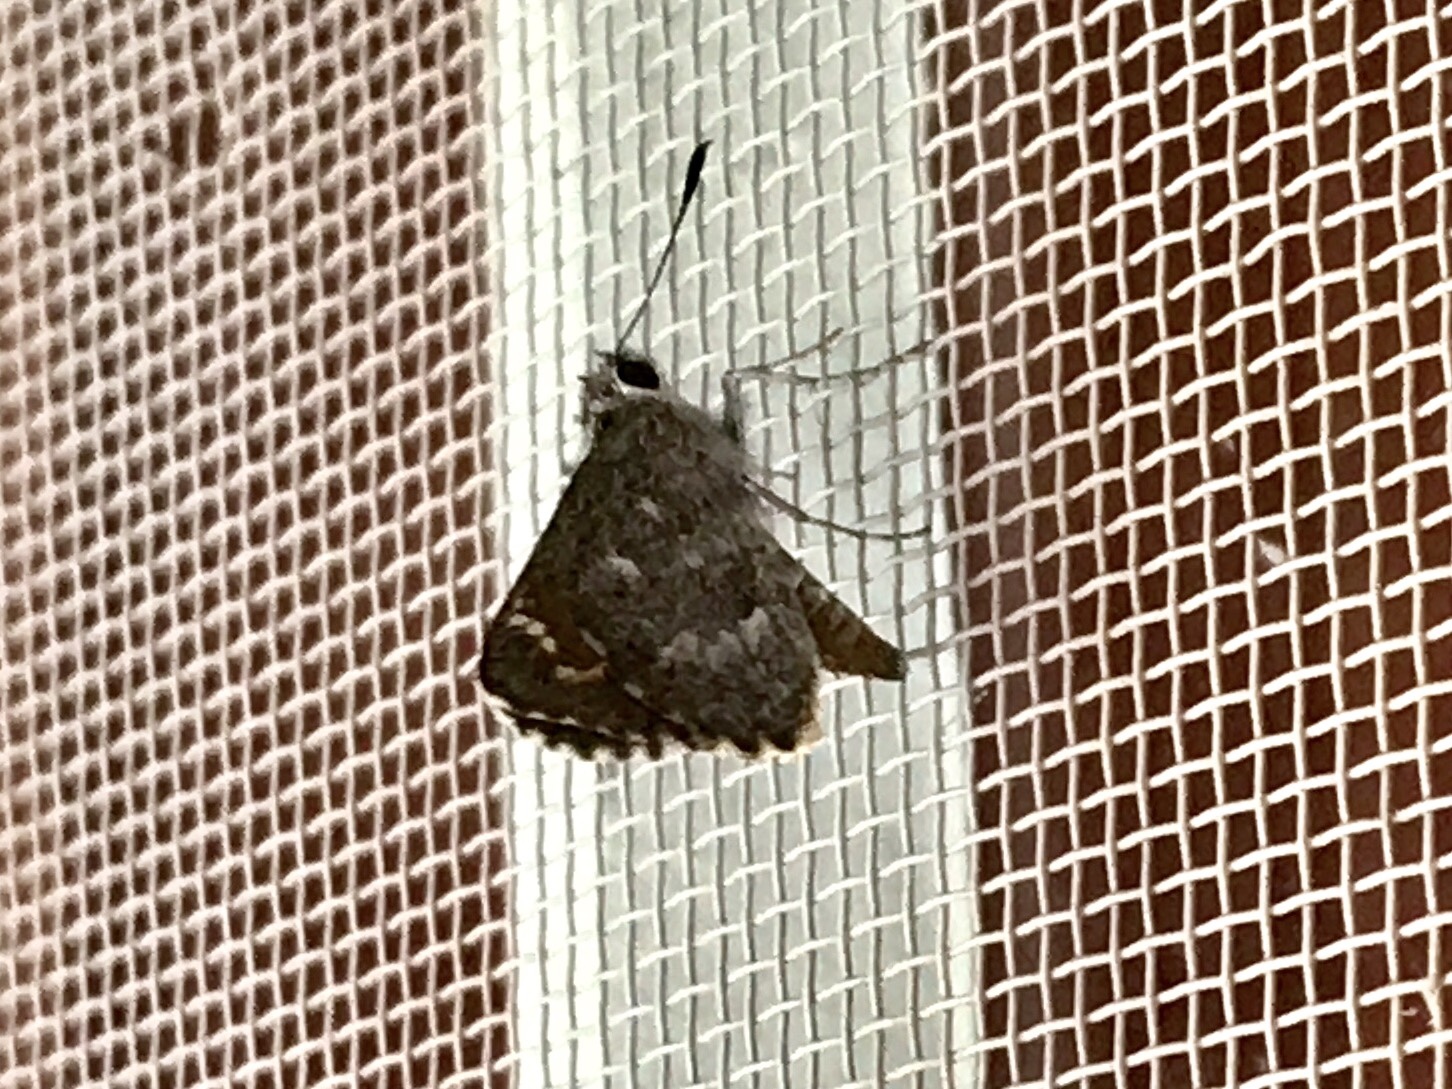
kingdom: Animalia
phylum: Arthropoda
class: Insecta
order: Lepidoptera
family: Hesperiidae
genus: Mastor
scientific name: Mastor aenus
